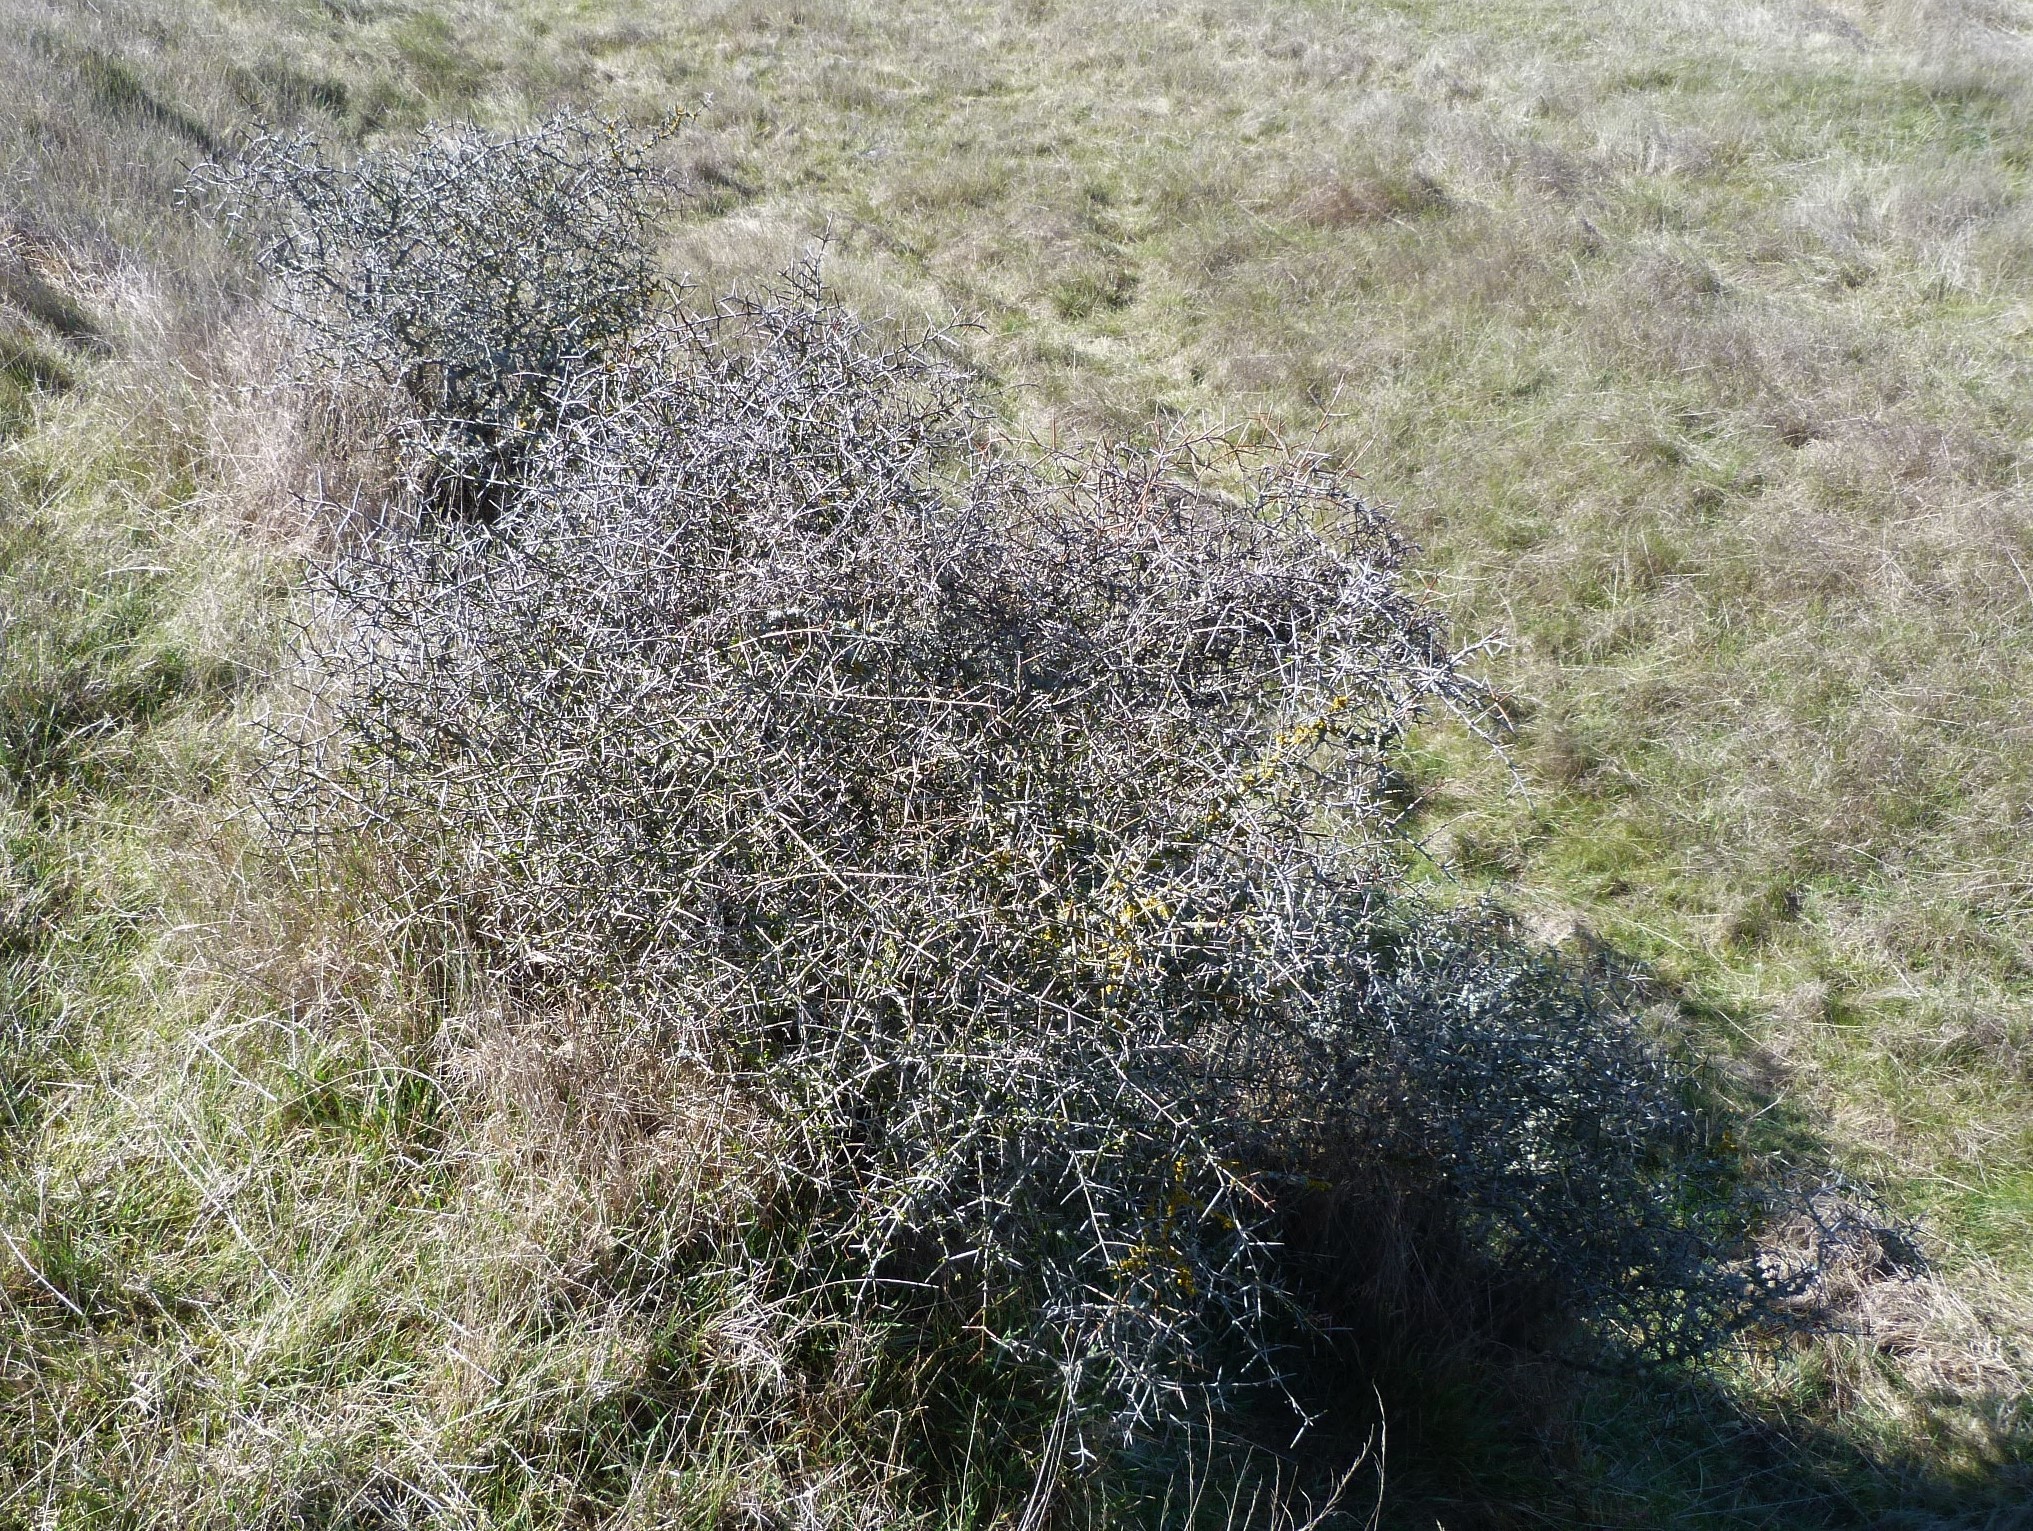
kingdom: Plantae
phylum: Tracheophyta
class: Magnoliopsida
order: Rosales
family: Rhamnaceae
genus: Discaria
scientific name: Discaria toumatou
